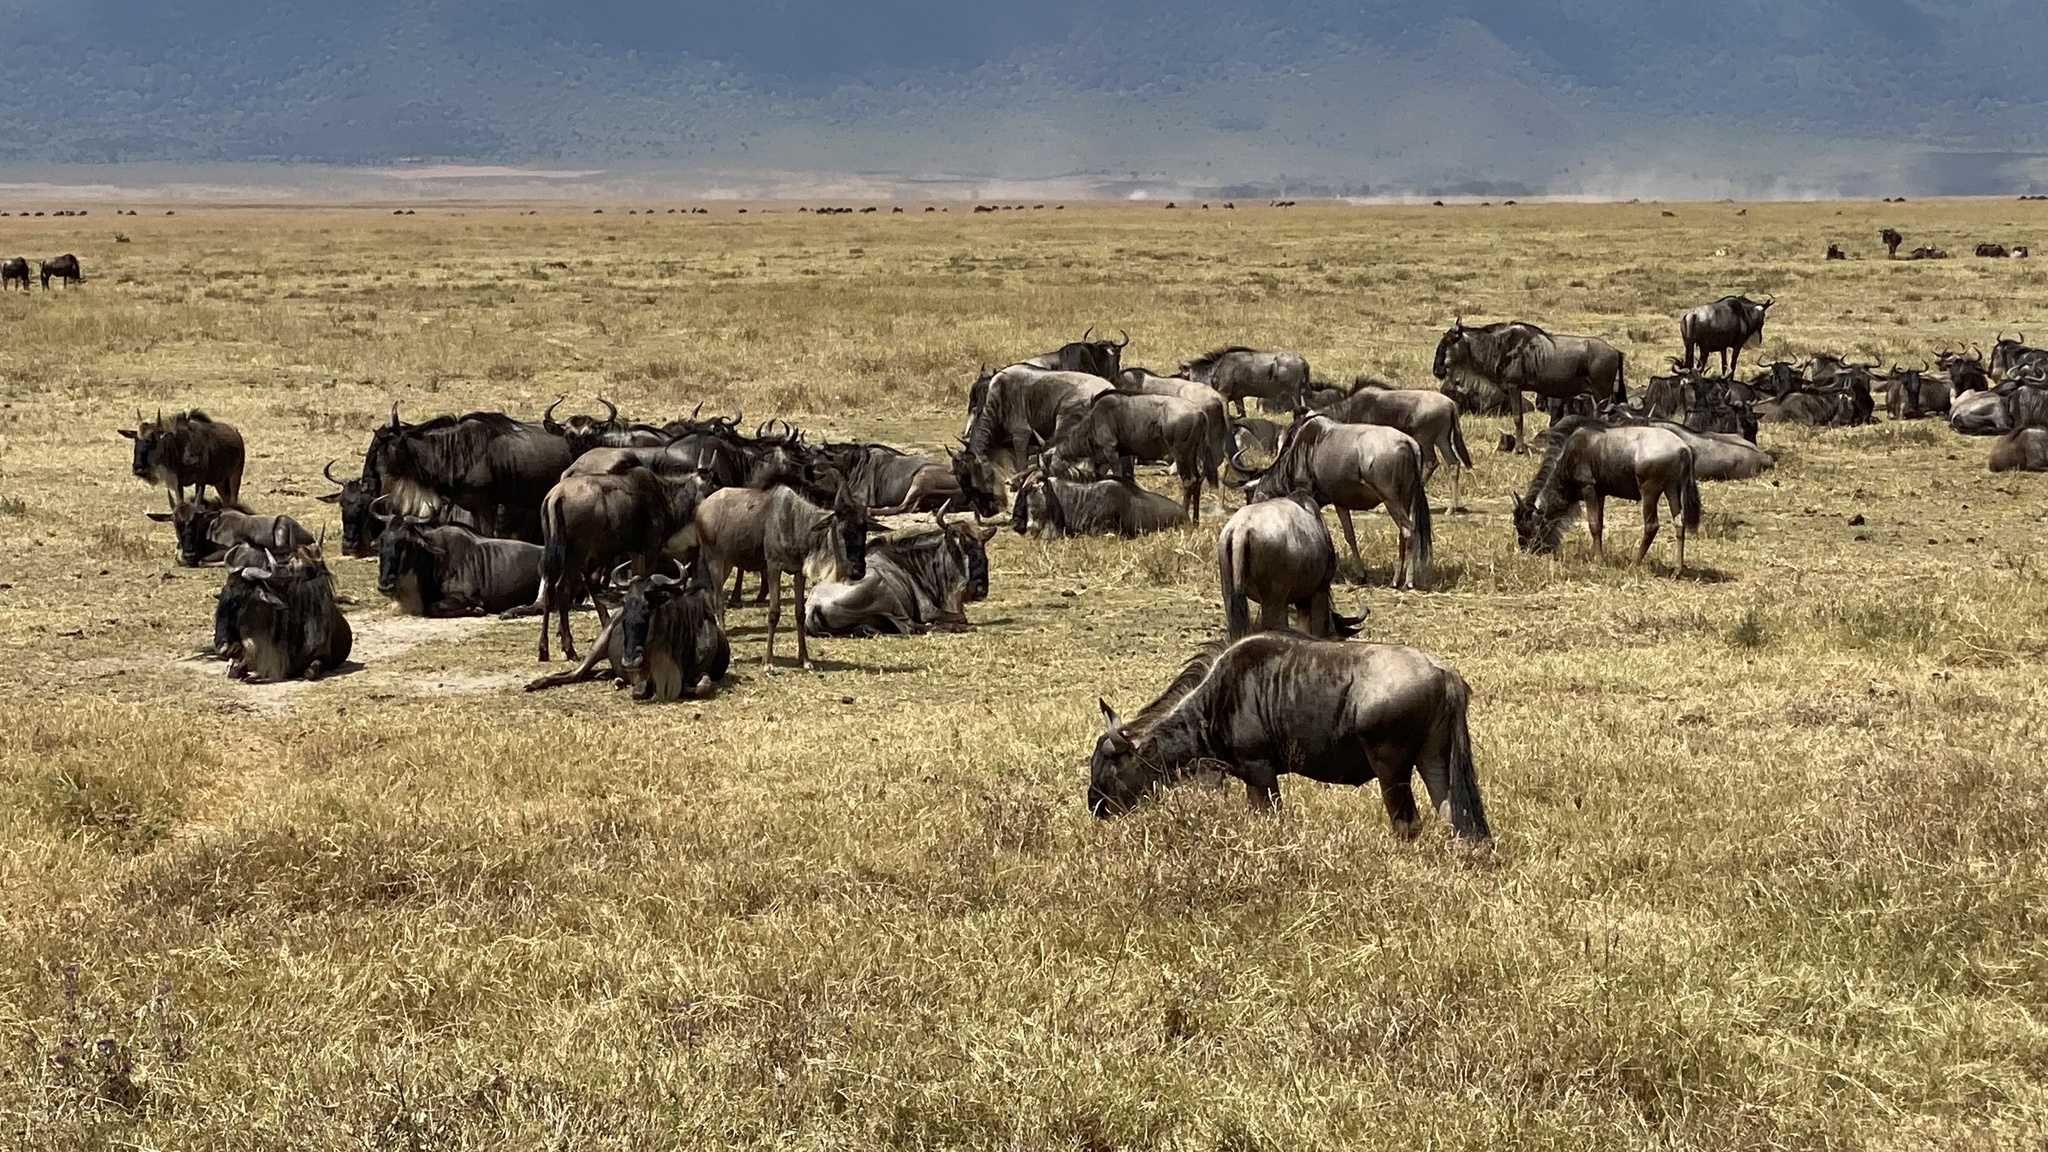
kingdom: Animalia
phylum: Chordata
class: Mammalia
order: Artiodactyla
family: Bovidae
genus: Connochaetes
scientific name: Connochaetes taurinus
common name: Blue wildebeest
